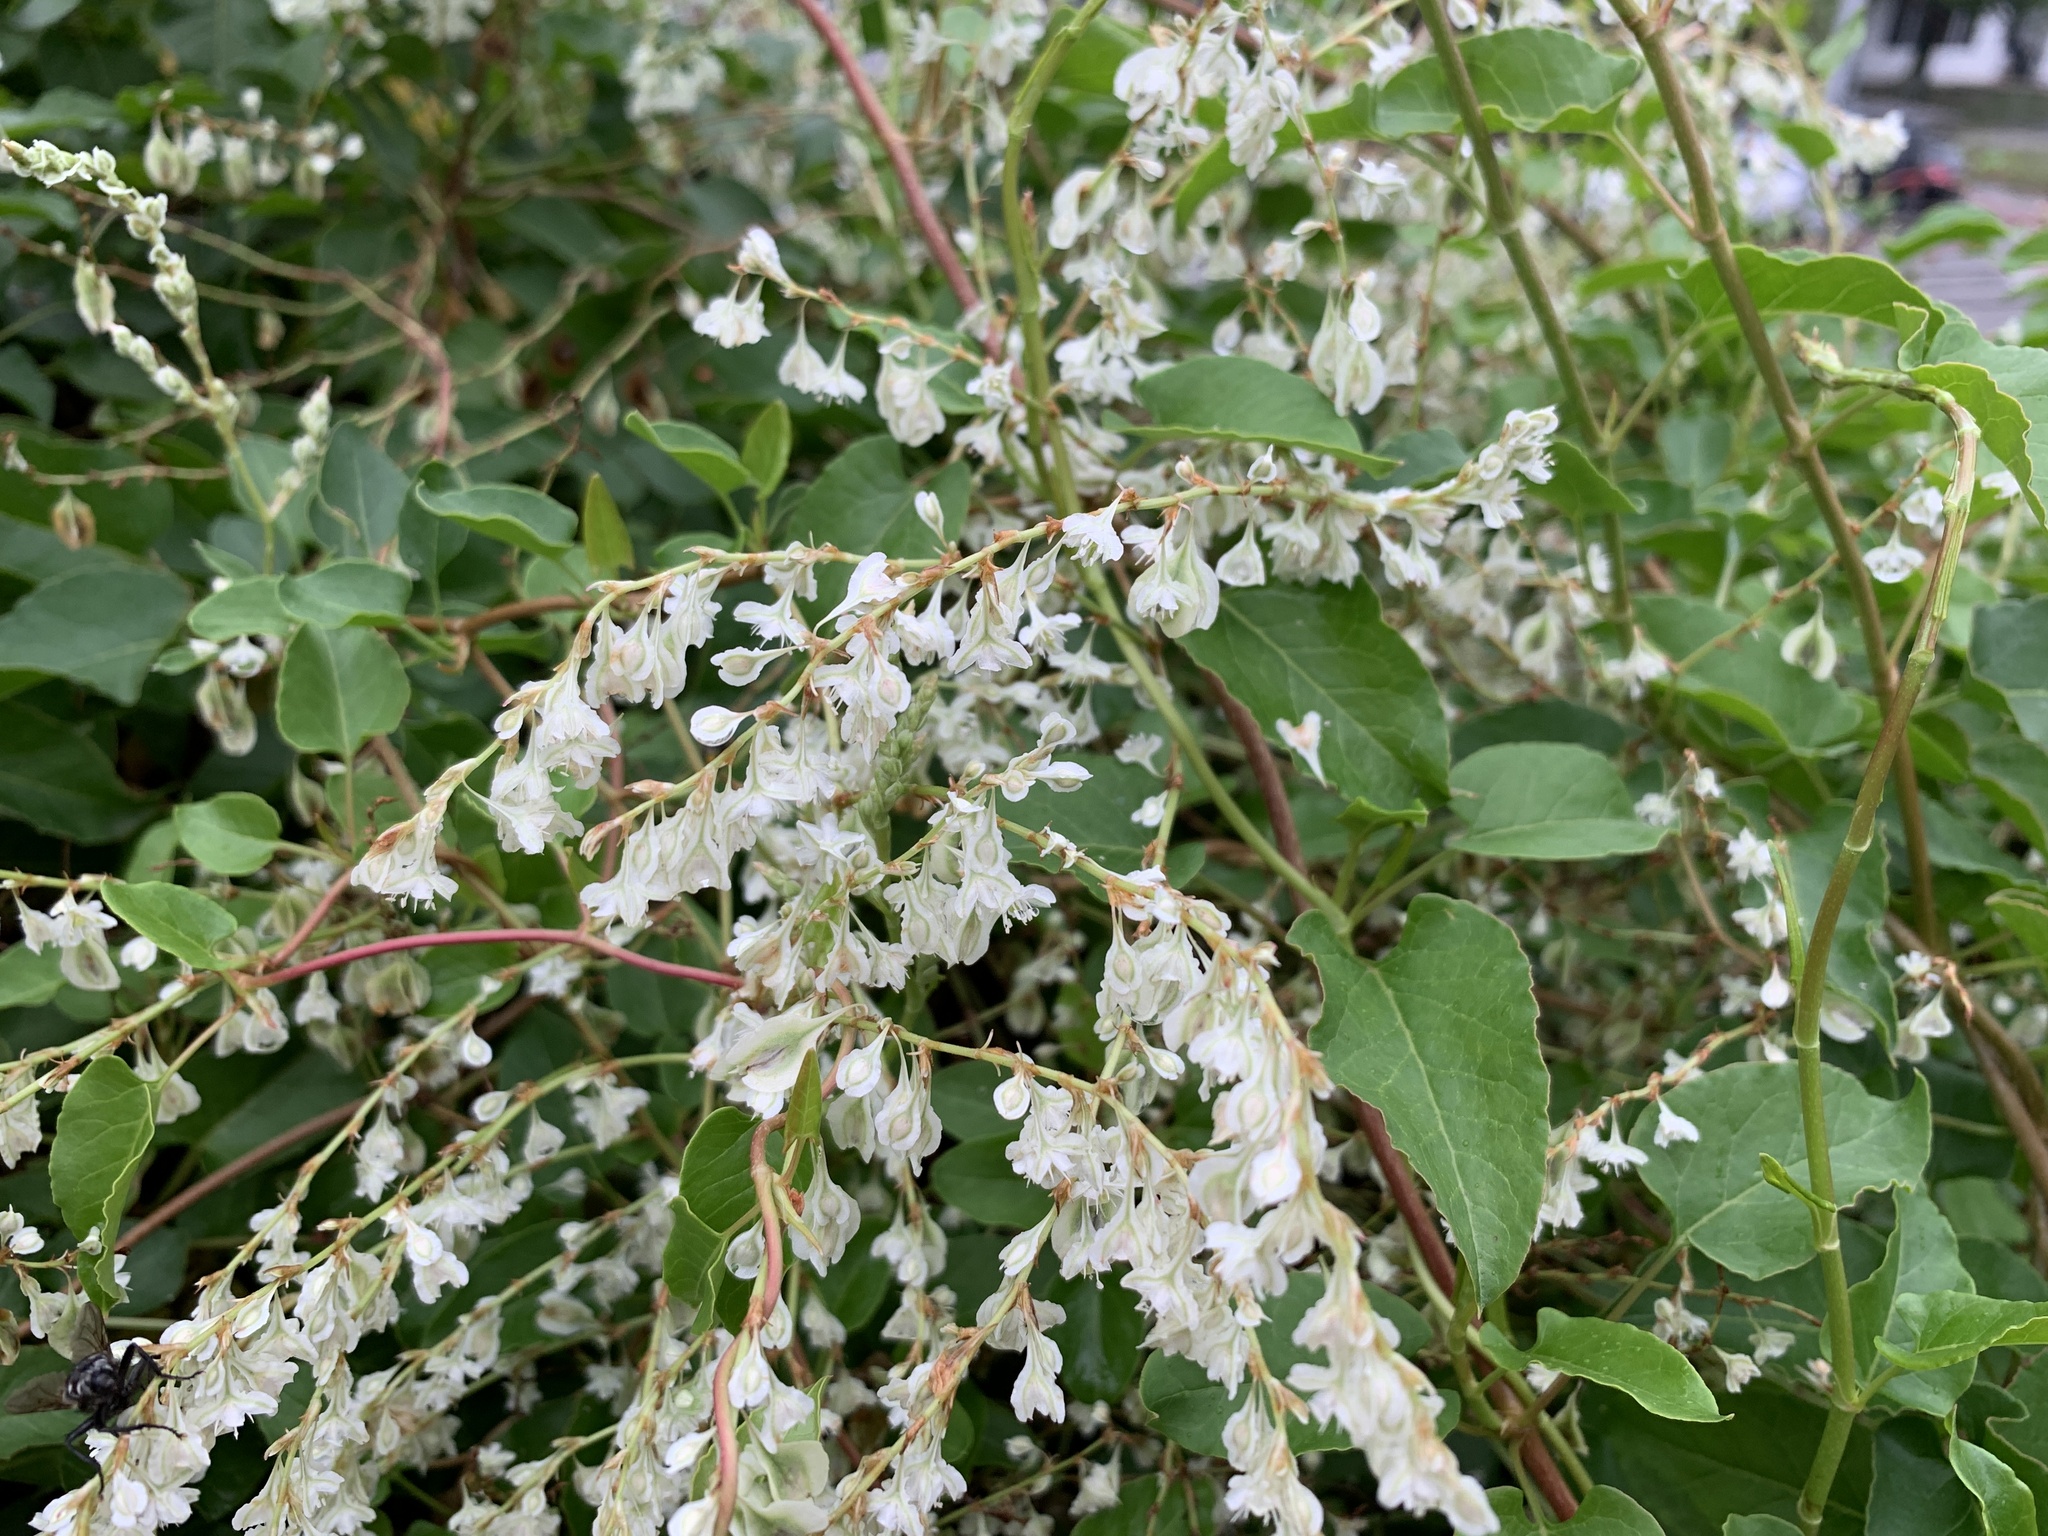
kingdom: Plantae
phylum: Tracheophyta
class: Magnoliopsida
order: Caryophyllales
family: Polygonaceae
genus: Fallopia
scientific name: Fallopia baldschuanica
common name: Russian-vine
